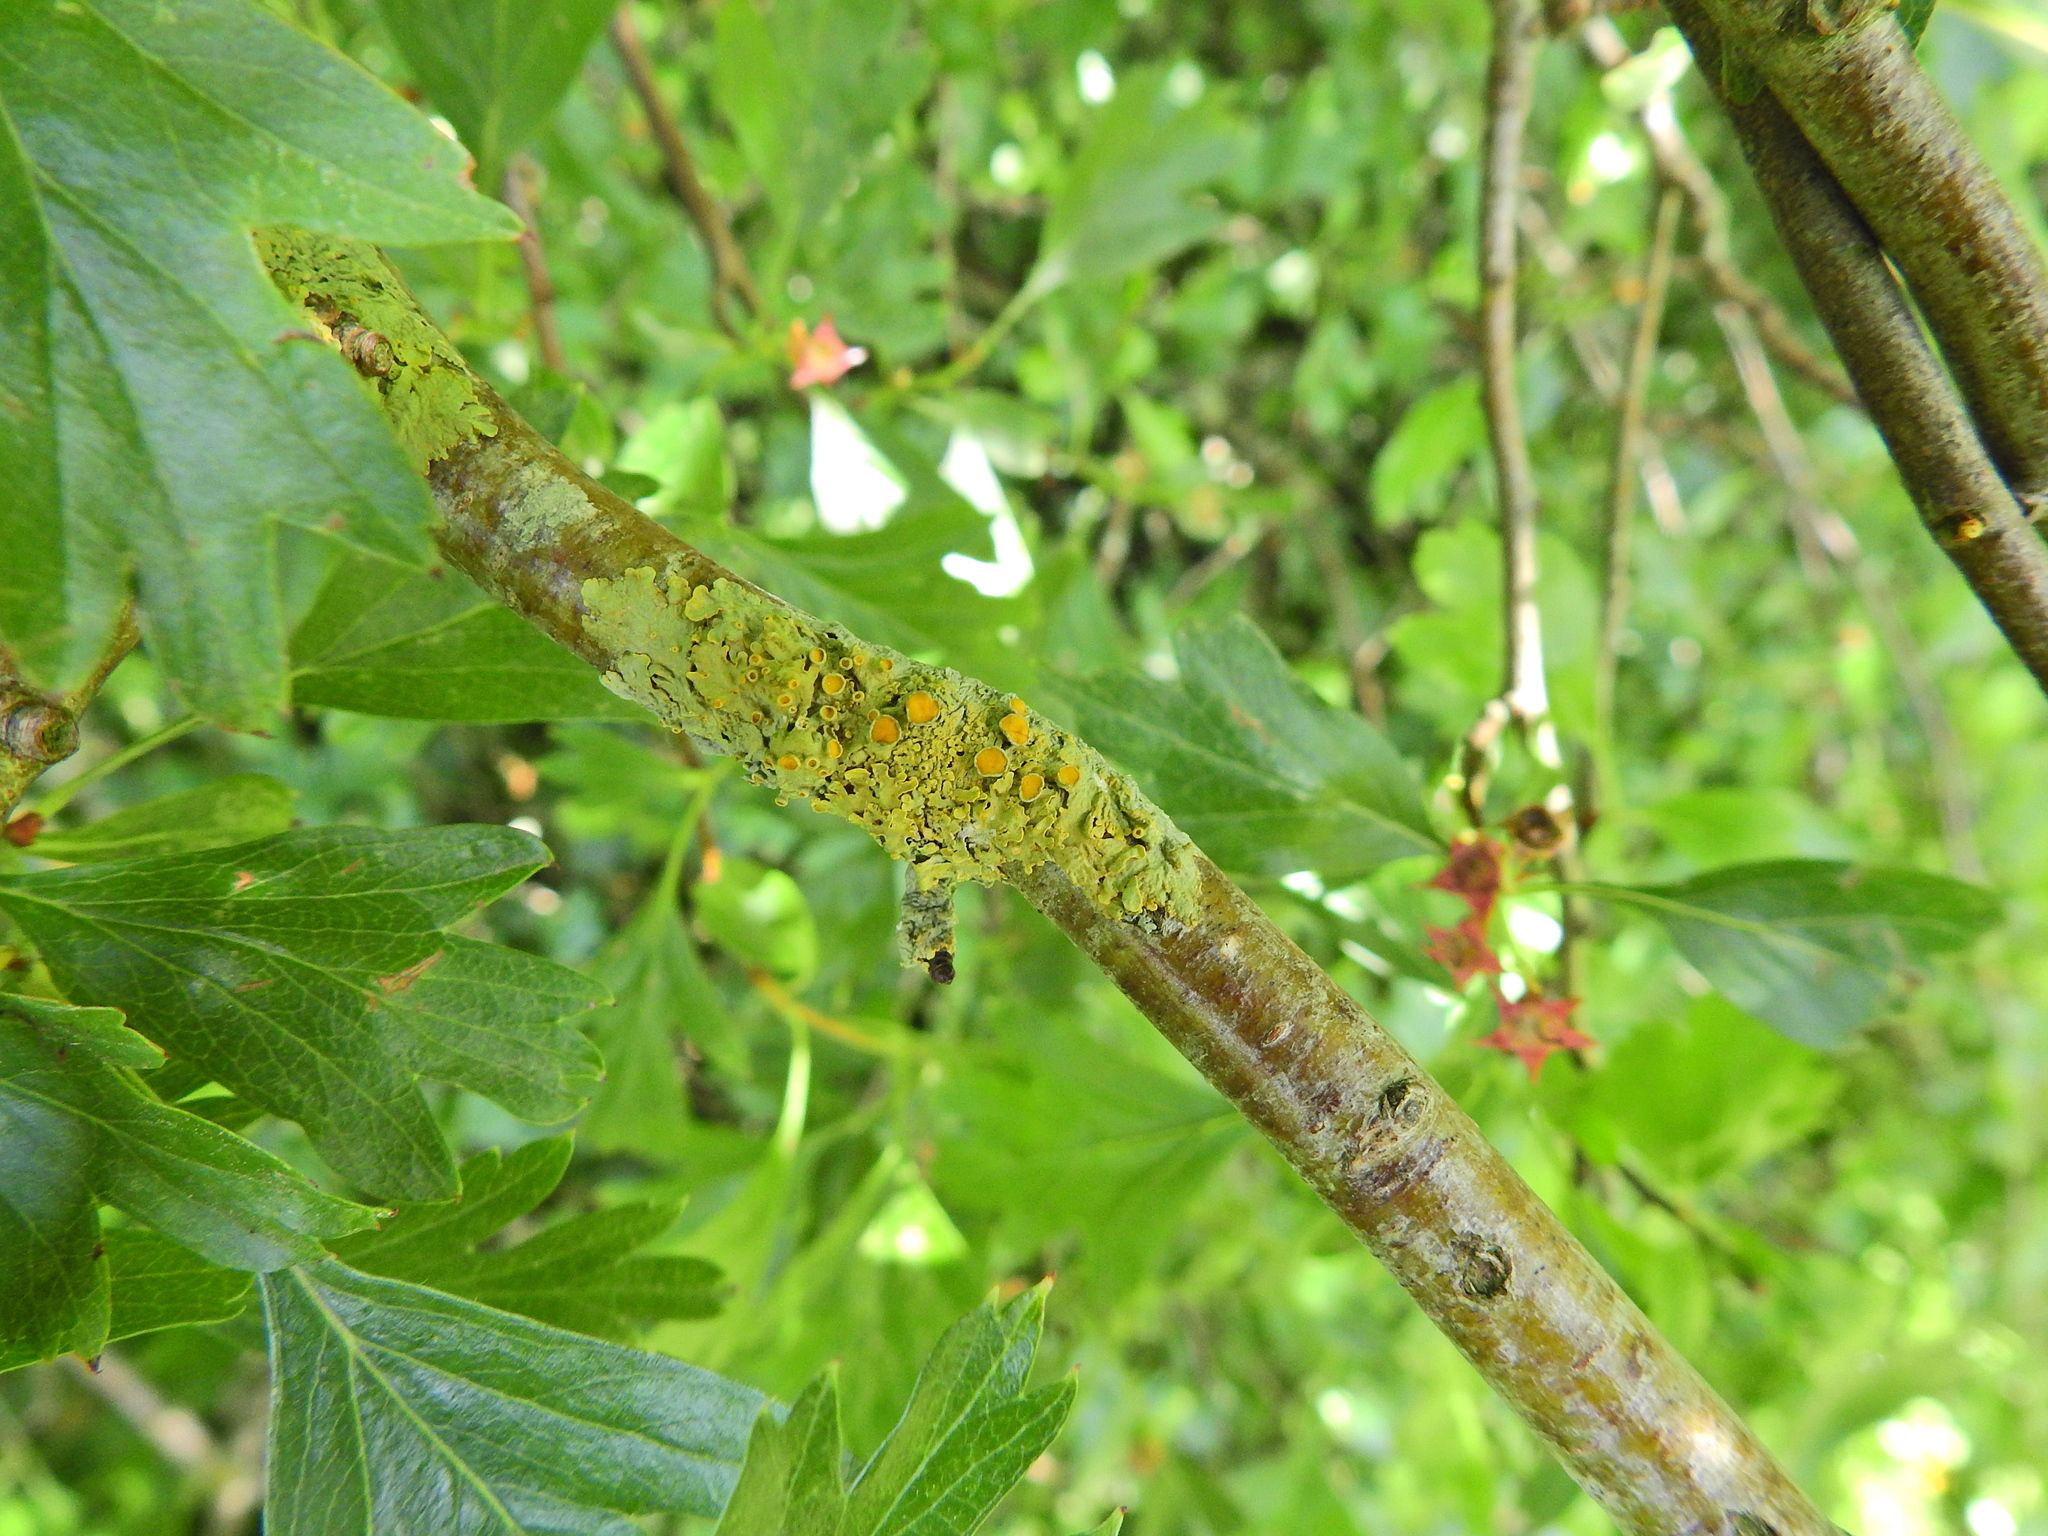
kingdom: Fungi
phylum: Ascomycota
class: Lecanoromycetes
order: Teloschistales
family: Teloschistaceae
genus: Xanthoria
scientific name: Xanthoria parietina
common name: Common orange lichen
